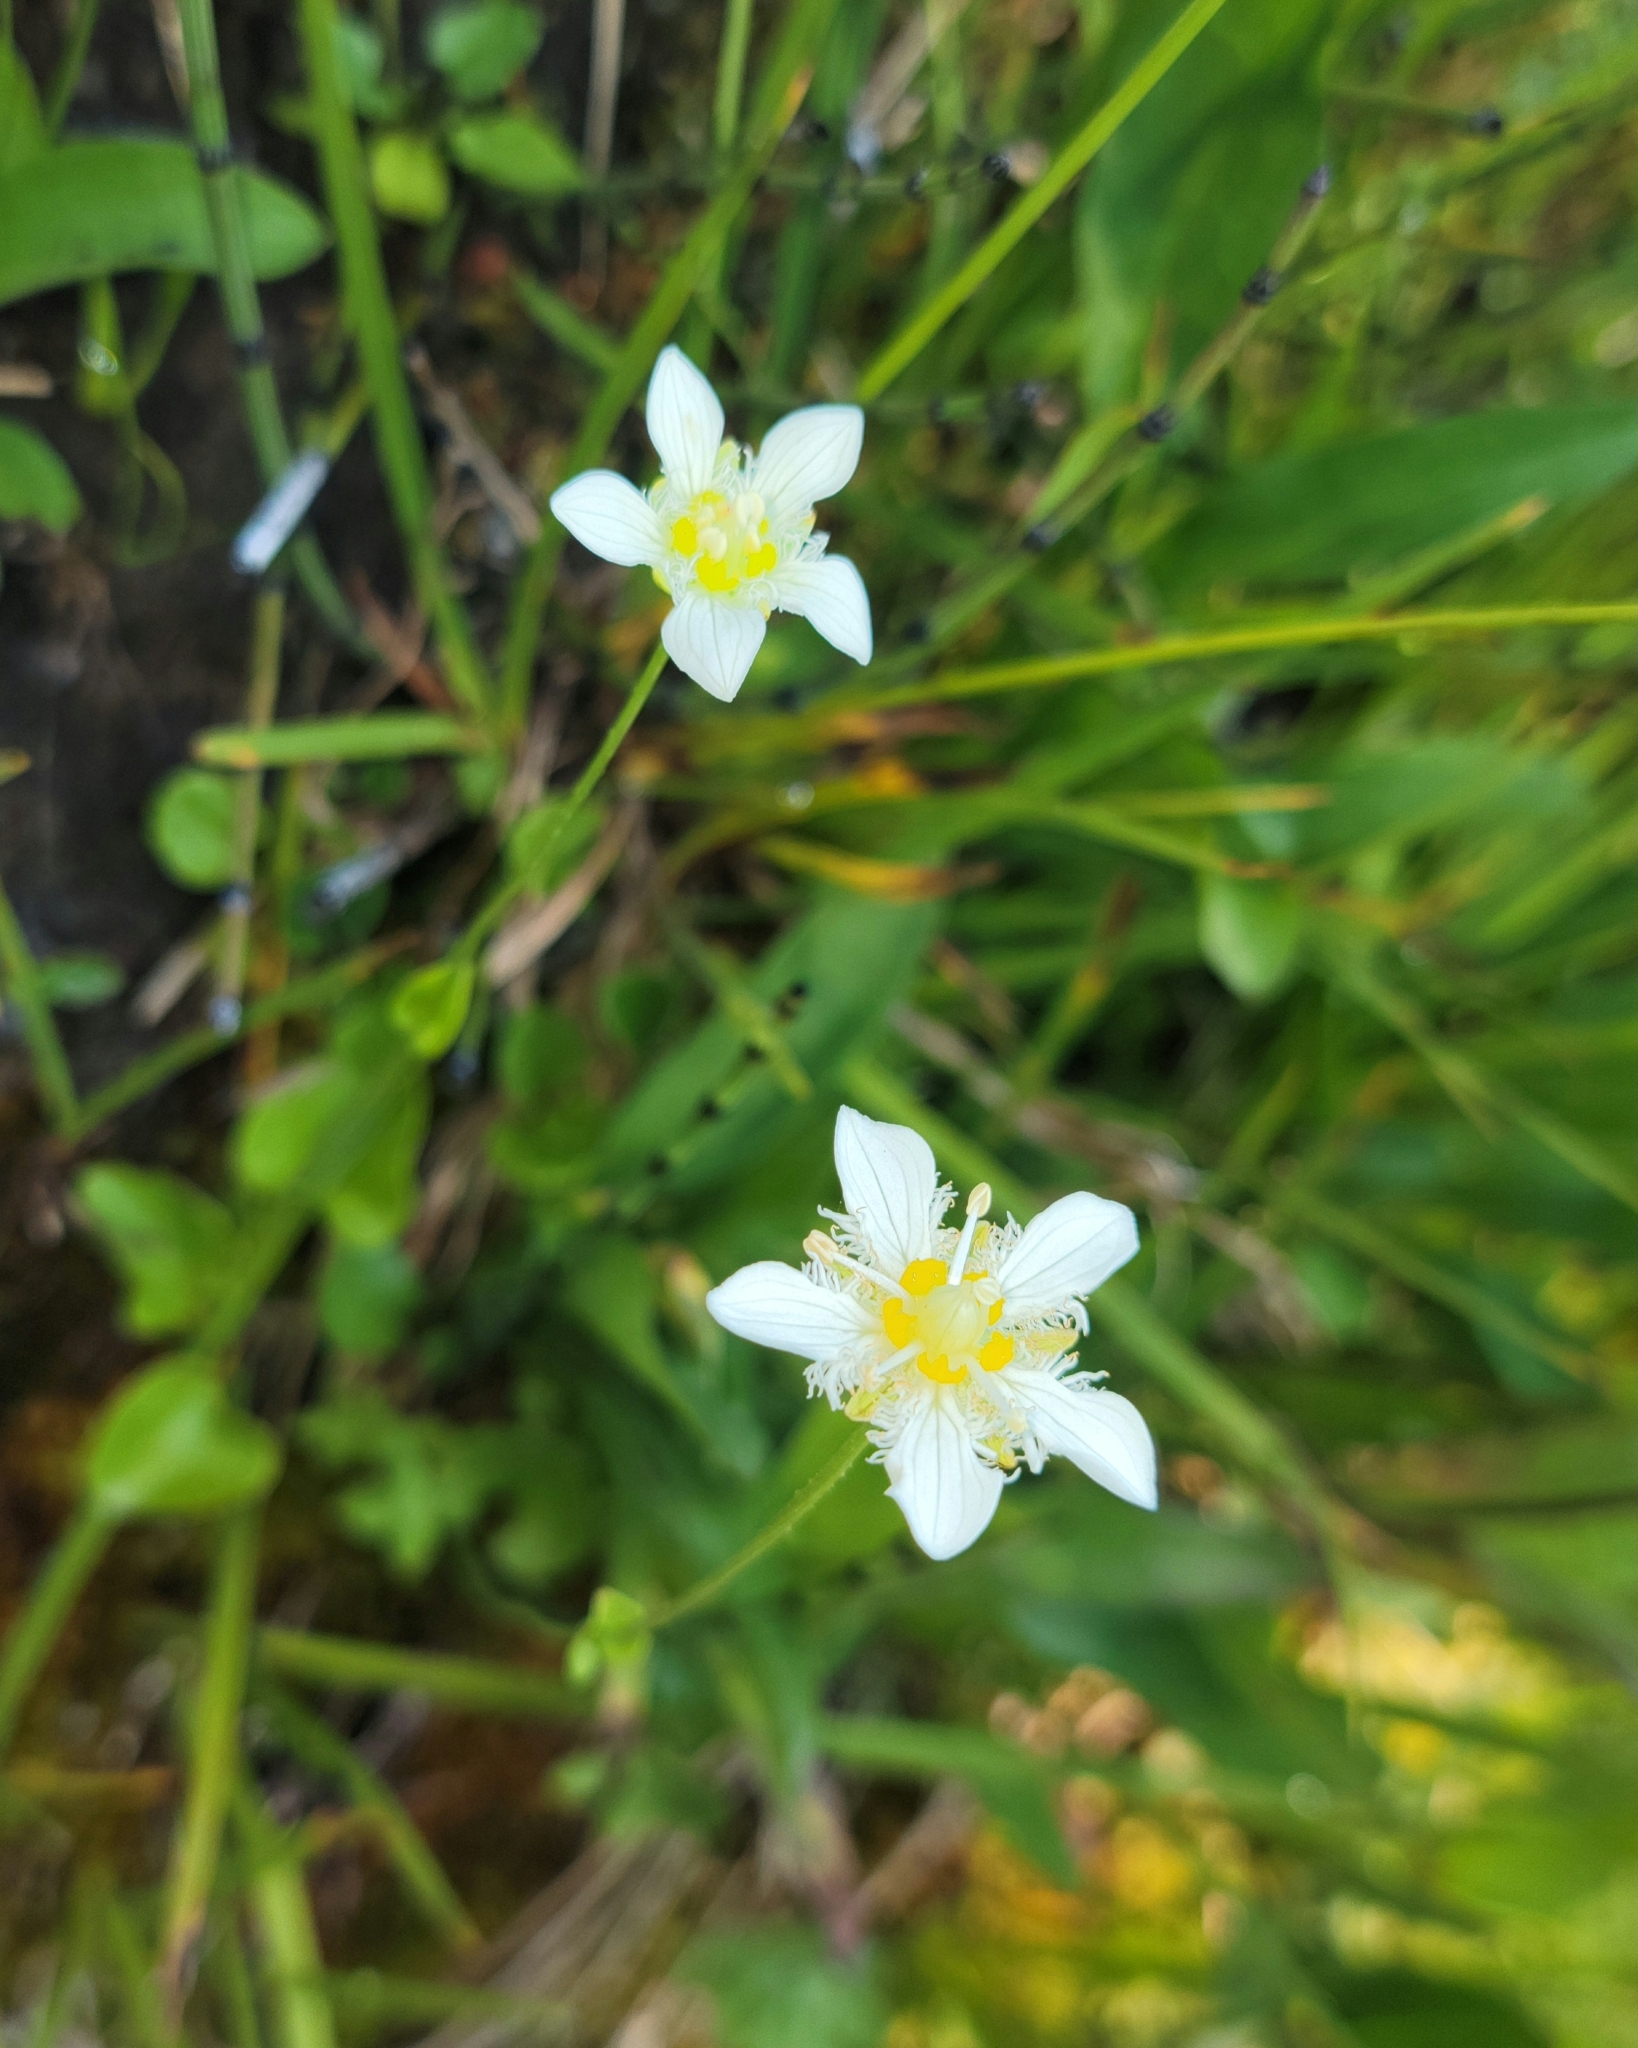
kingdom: Plantae
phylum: Tracheophyta
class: Magnoliopsida
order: Celastrales
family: Parnassiaceae
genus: Parnassia
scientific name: Parnassia fimbriata
